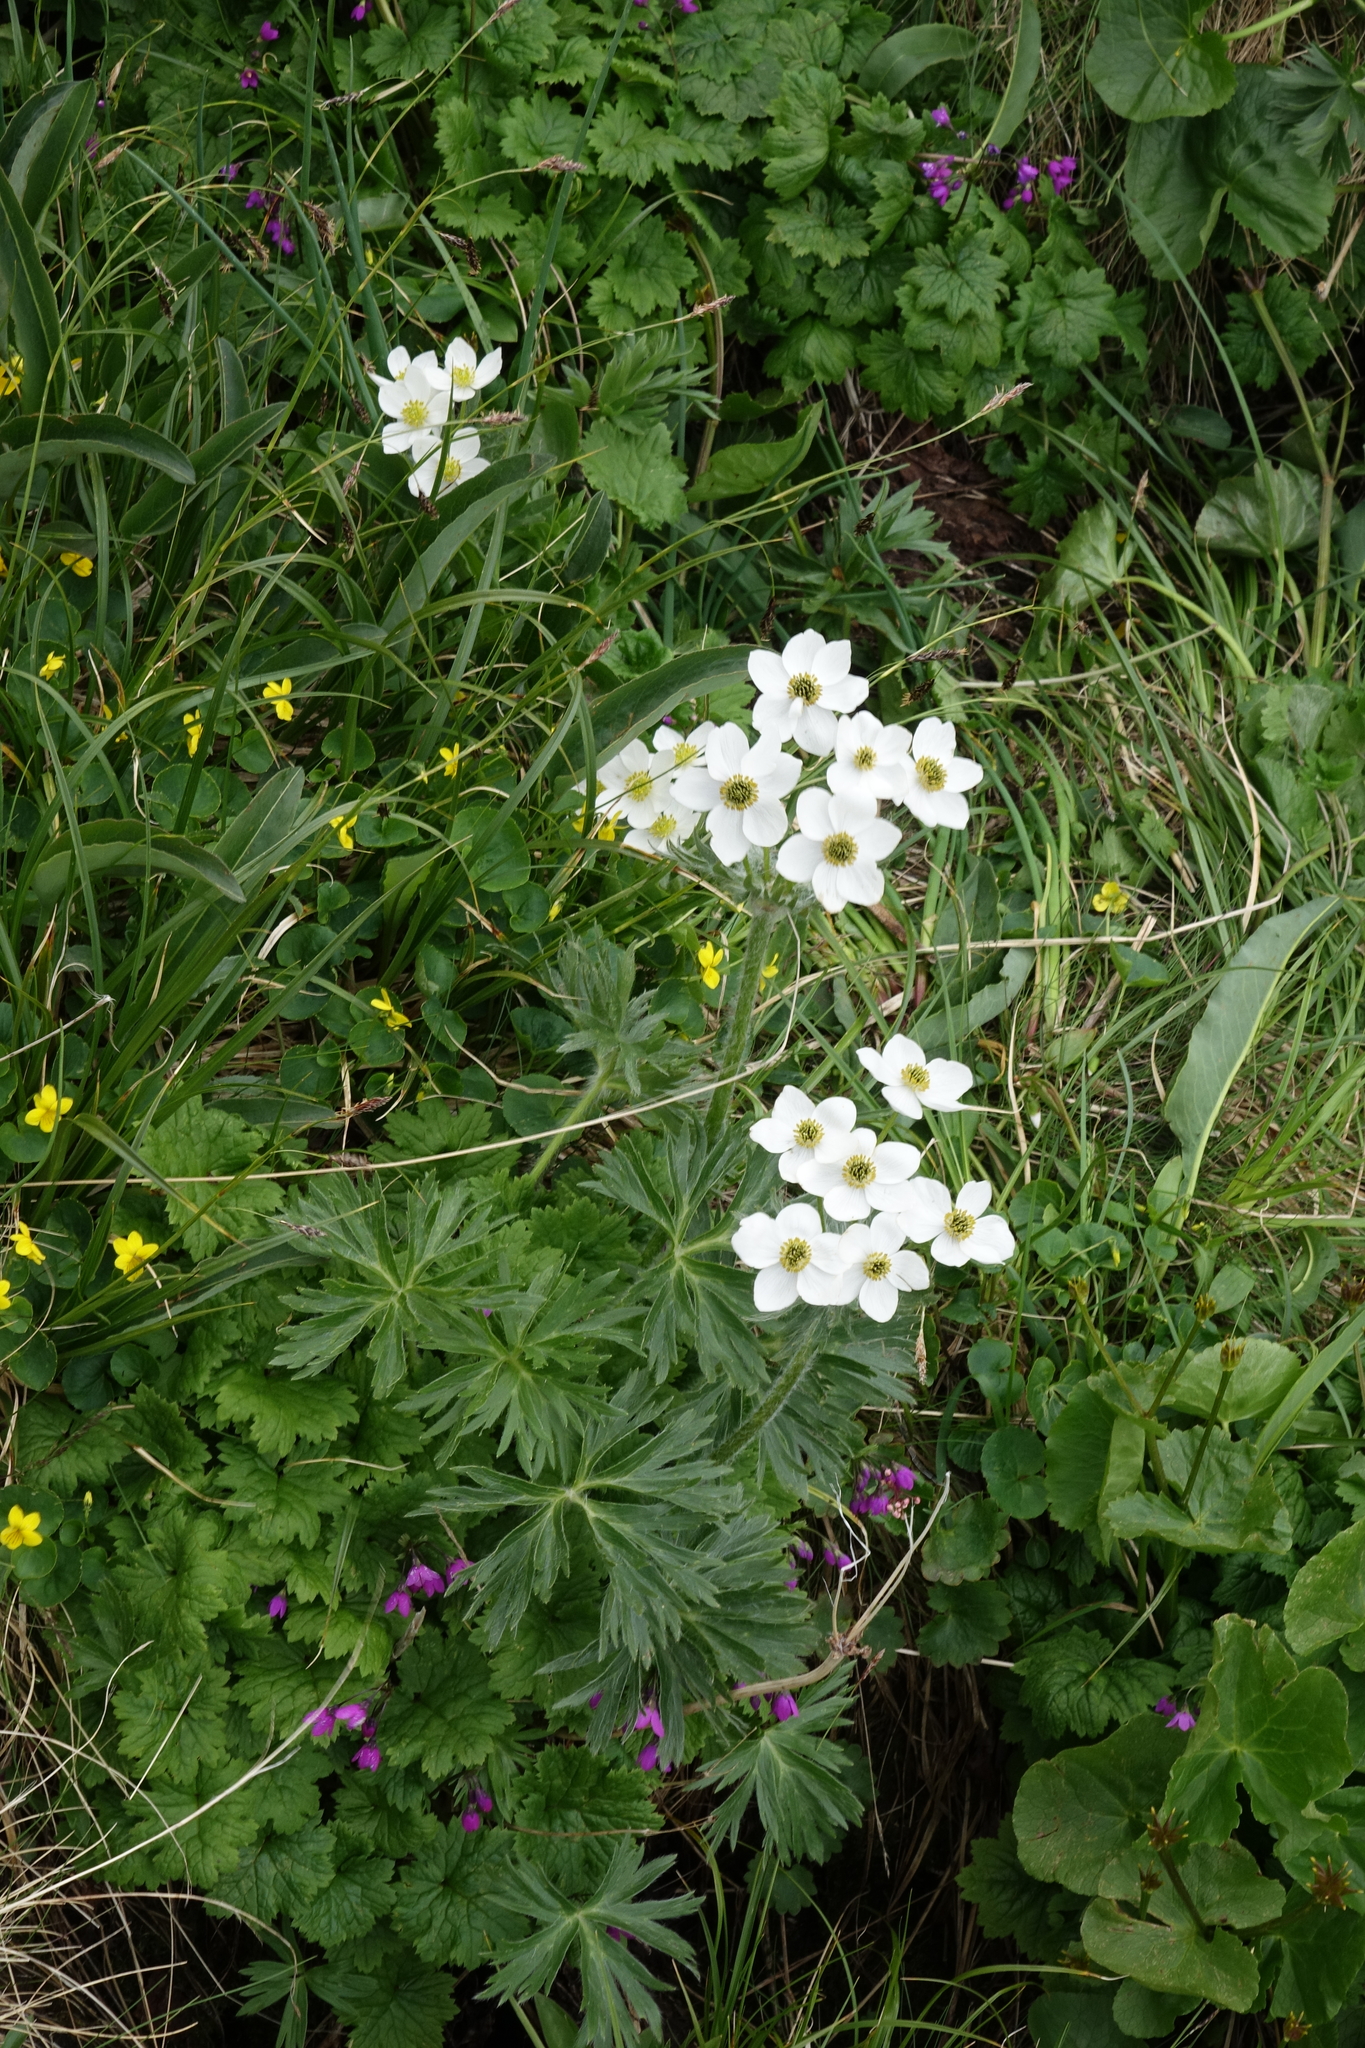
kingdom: Plantae
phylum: Tracheophyta
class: Magnoliopsida
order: Ranunculales
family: Ranunculaceae
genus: Anemonastrum
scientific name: Anemonastrum narcissiflorum
